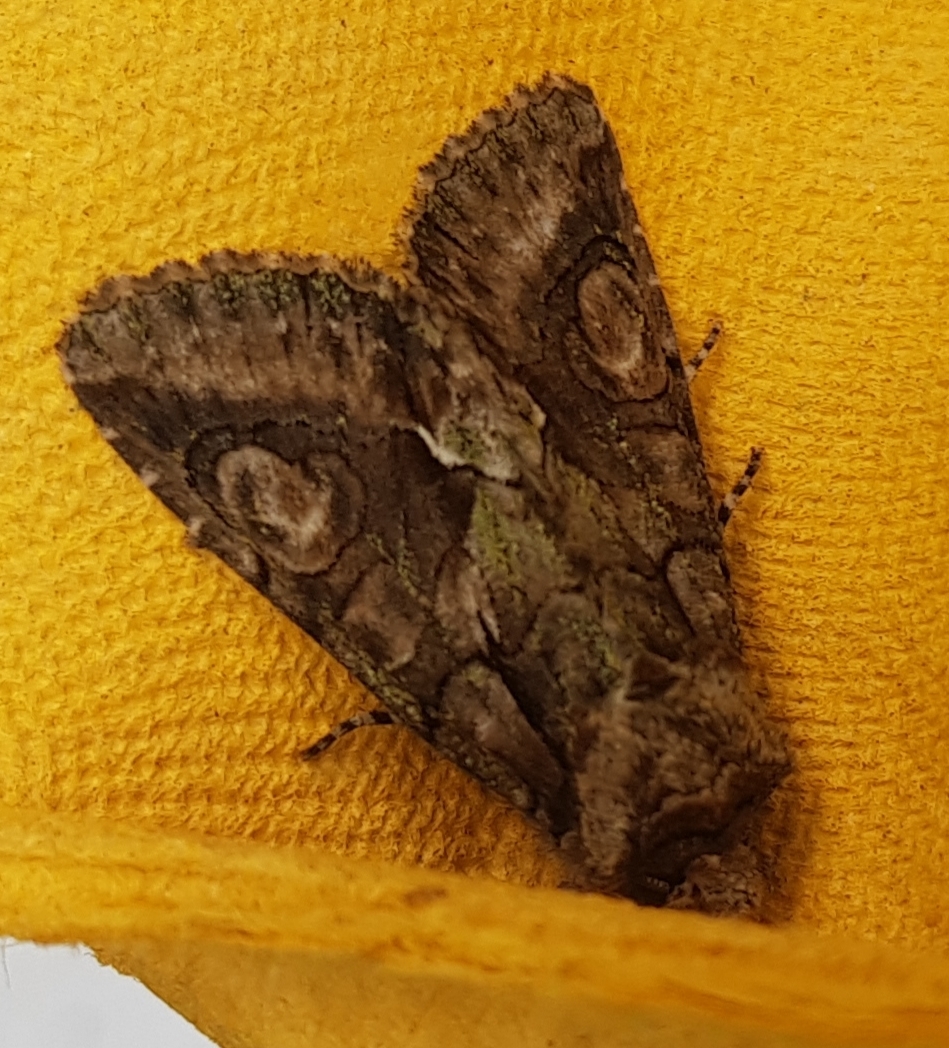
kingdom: Animalia
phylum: Arthropoda
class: Insecta
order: Lepidoptera
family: Noctuidae
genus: Allophyes
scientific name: Allophyes oxyacanthae
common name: Green-brindled crescent
